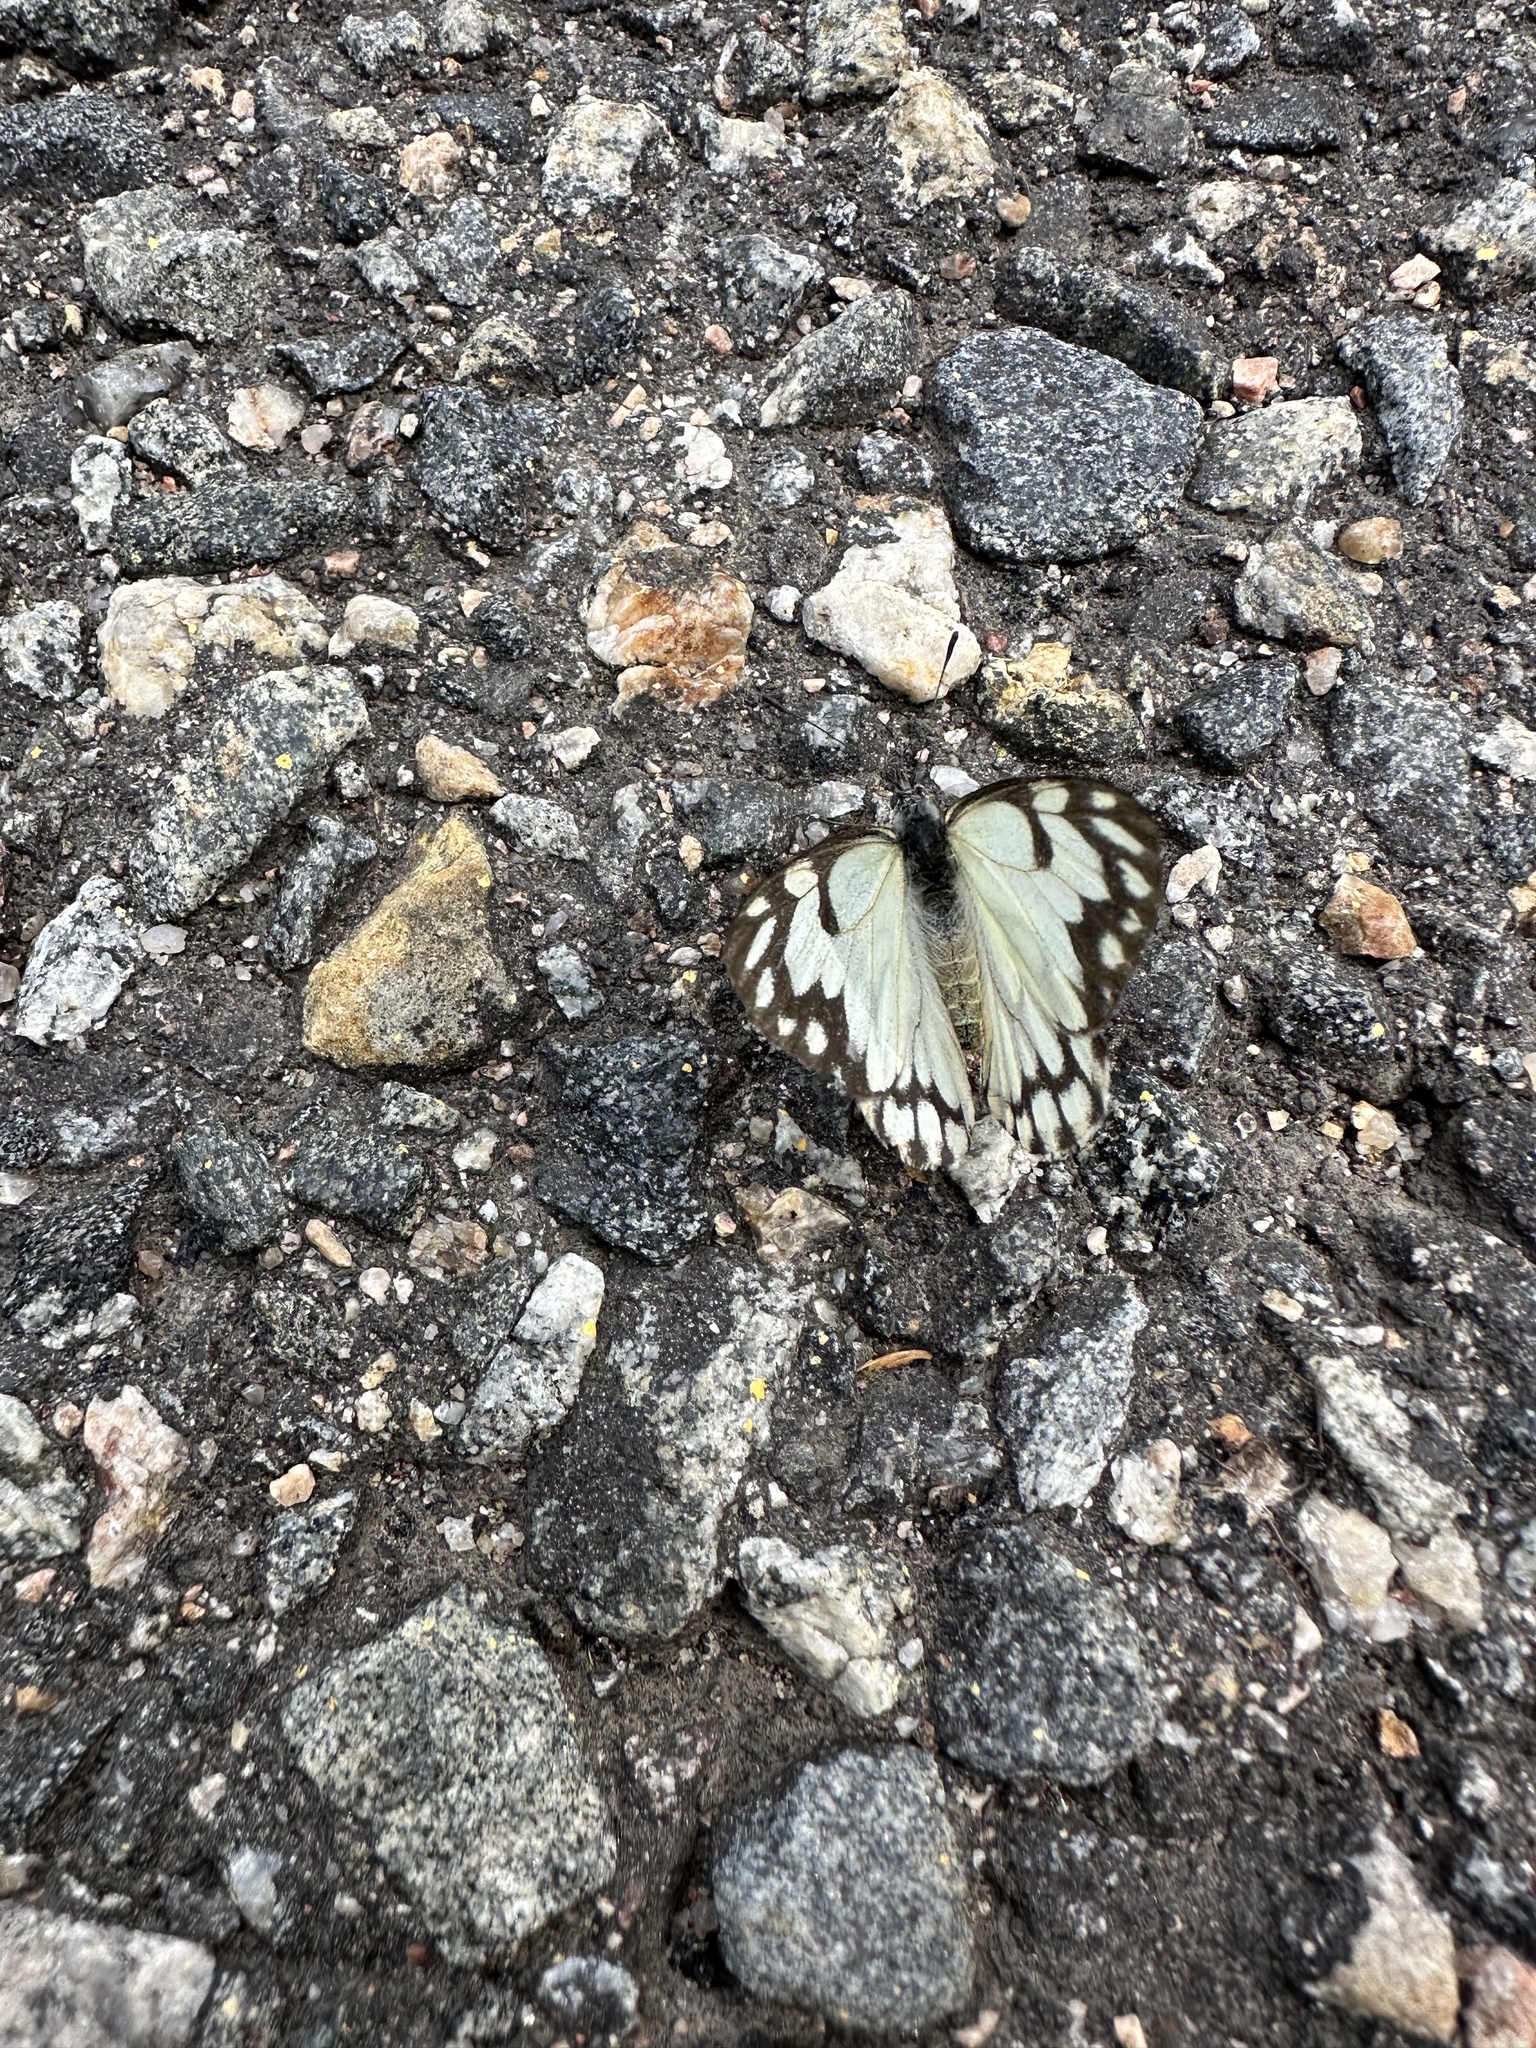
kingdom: Animalia
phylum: Arthropoda
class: Insecta
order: Lepidoptera
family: Pieridae
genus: Neophasia
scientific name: Neophasia menapia
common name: Pine white
